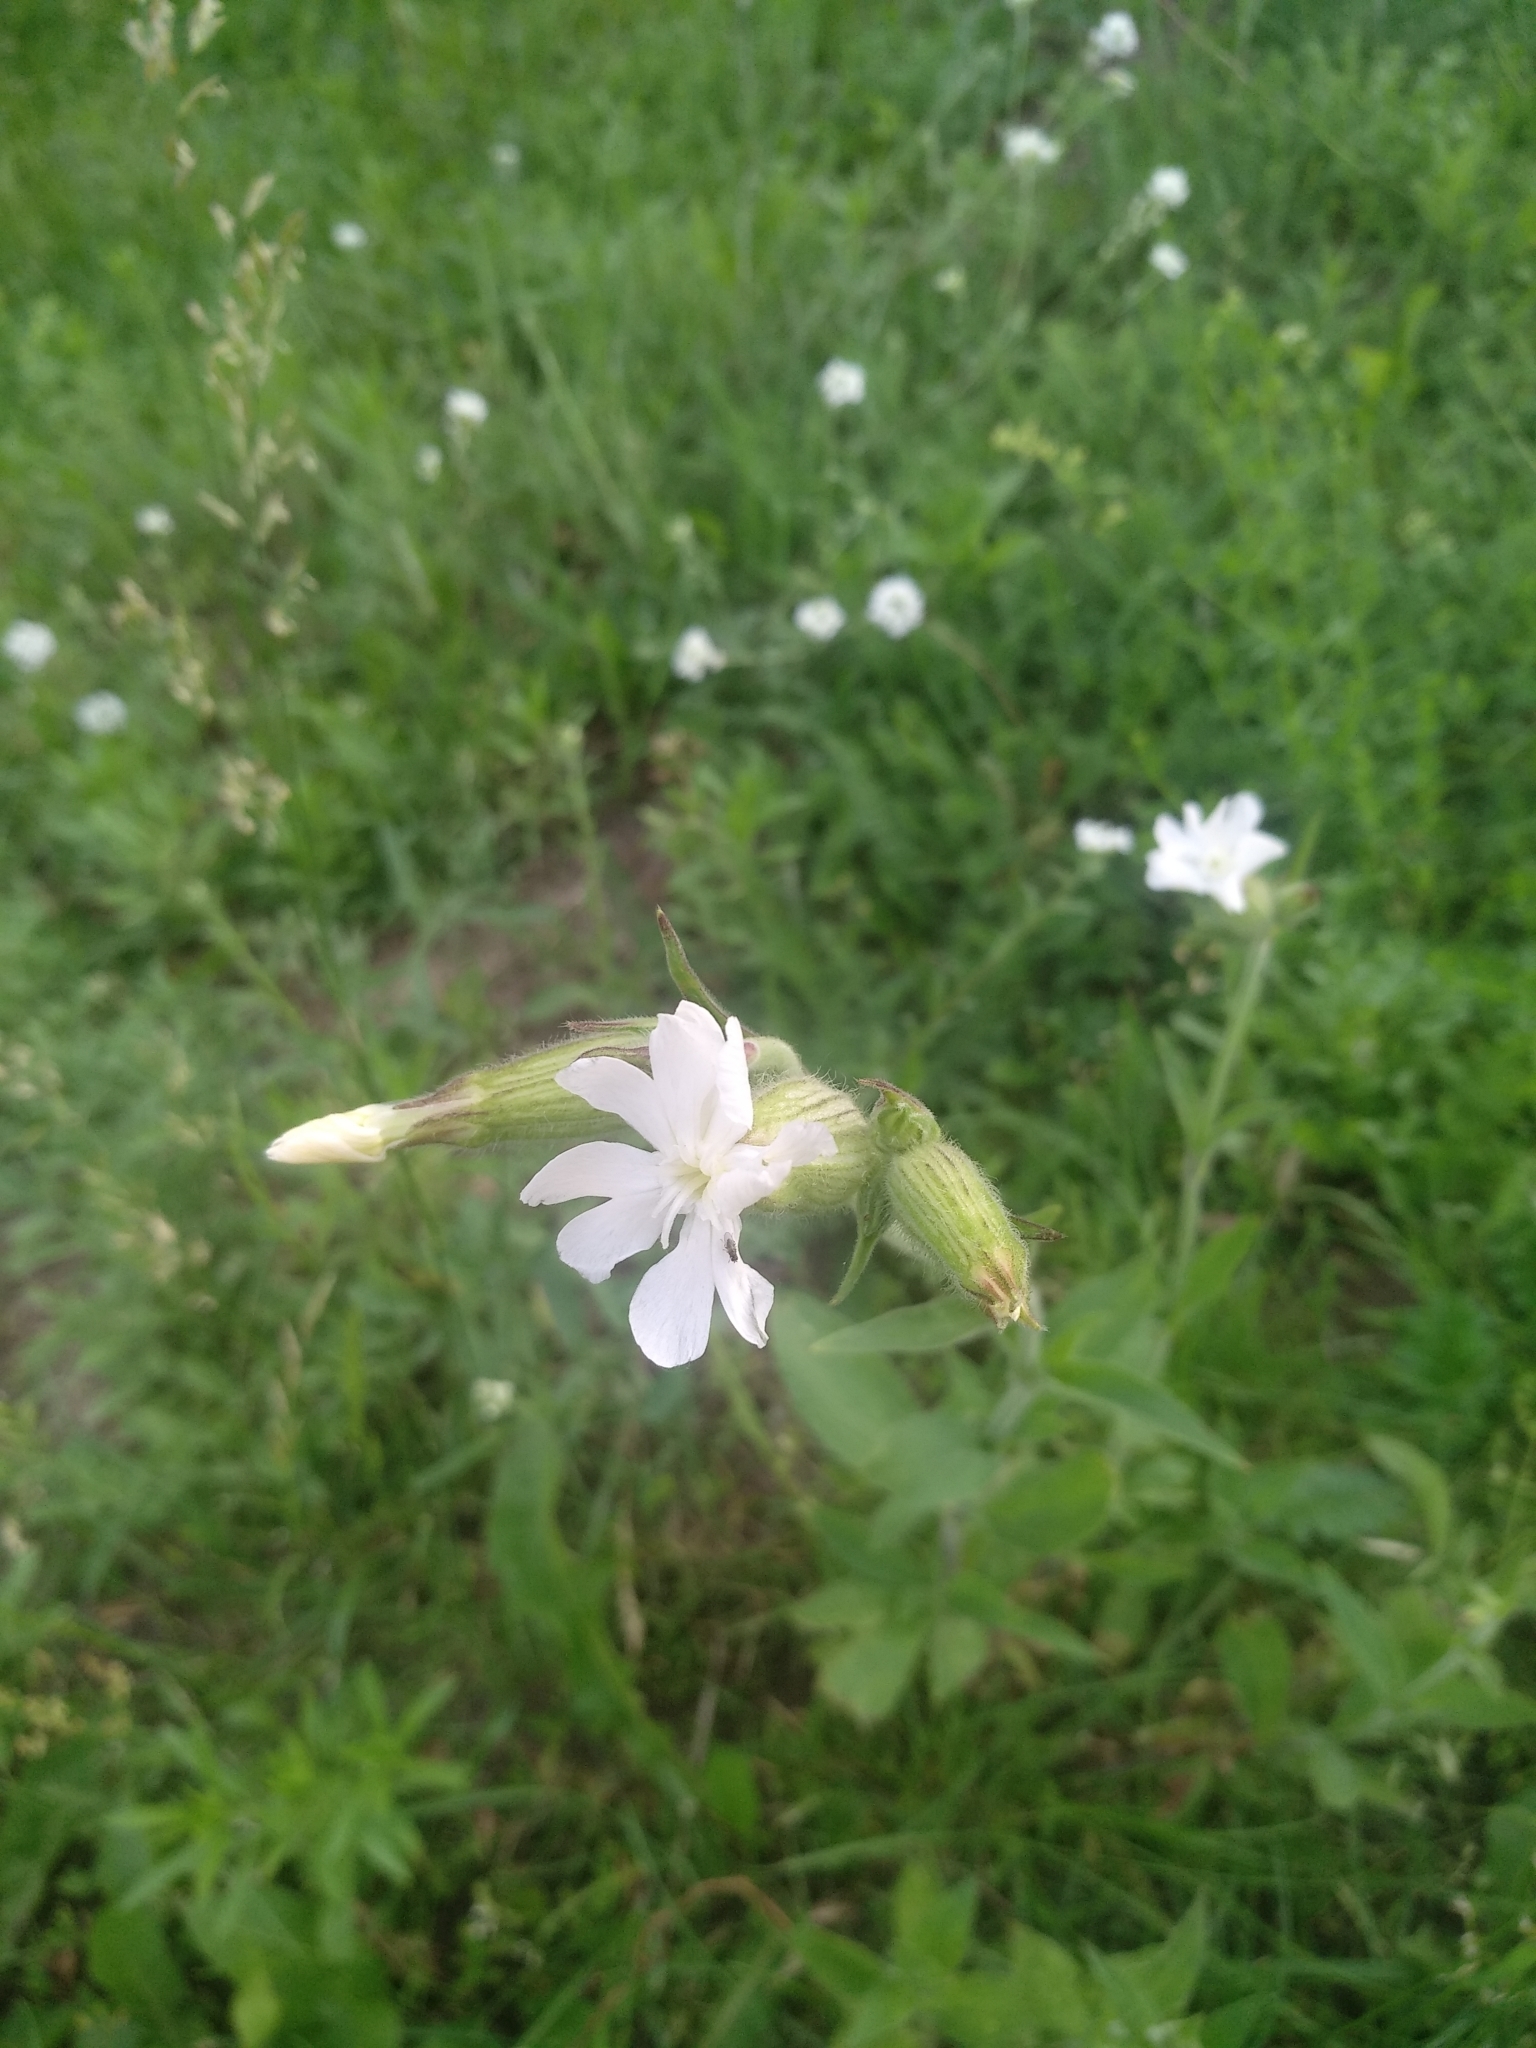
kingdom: Plantae
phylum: Tracheophyta
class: Magnoliopsida
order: Caryophyllales
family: Caryophyllaceae
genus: Silene
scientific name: Silene latifolia
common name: White campion
